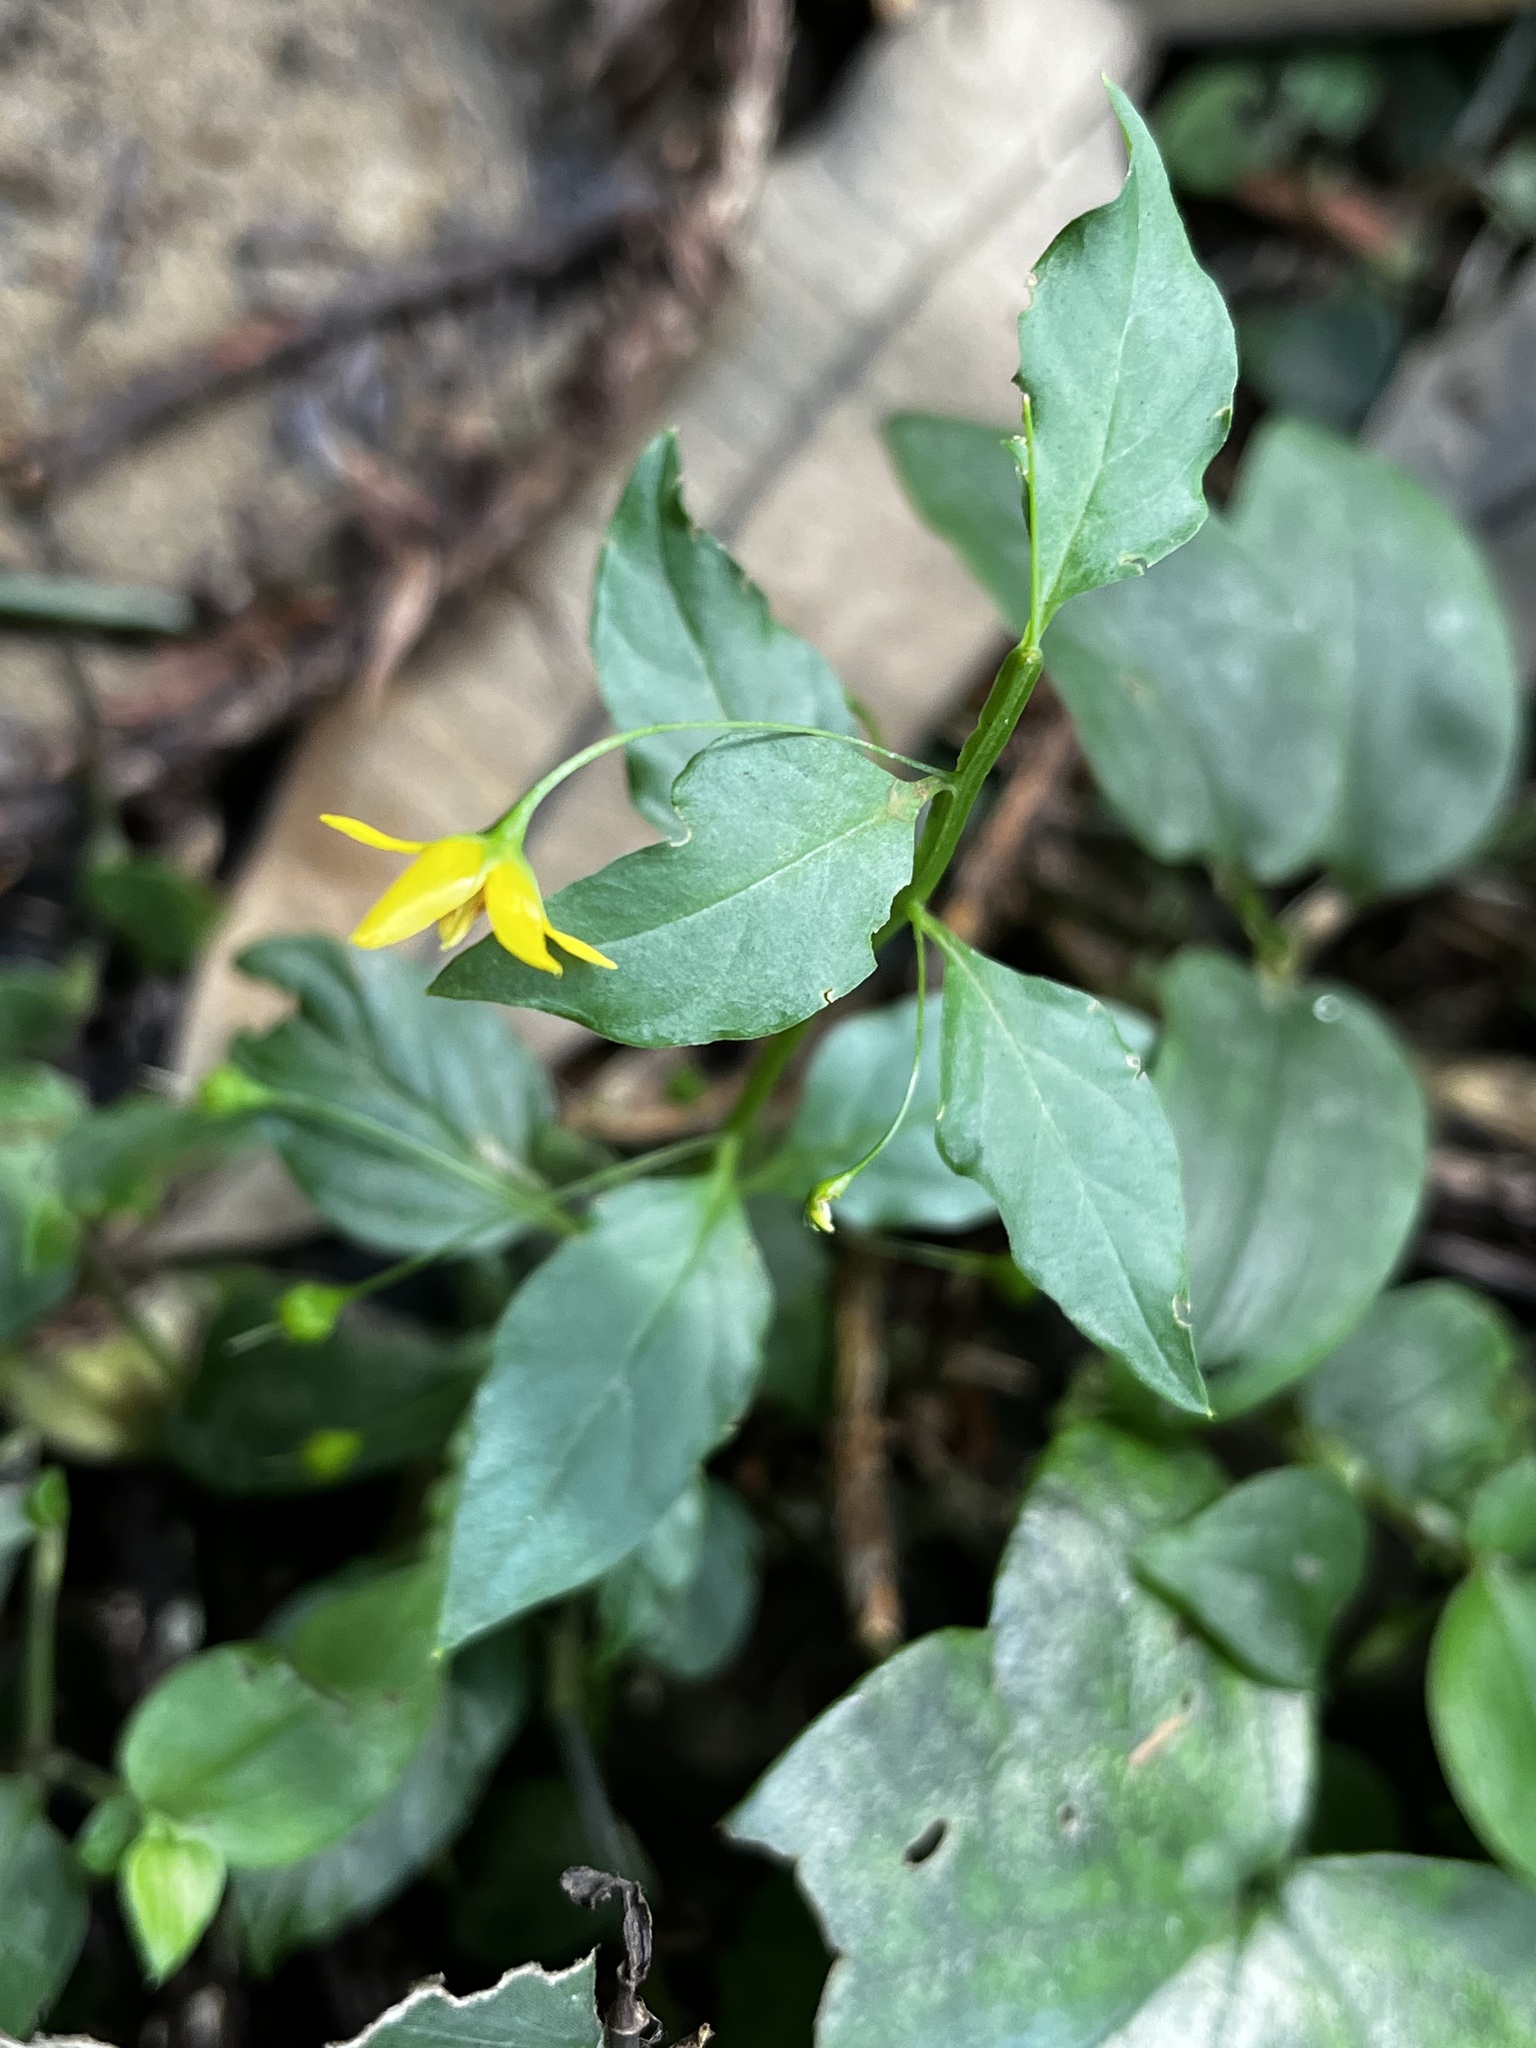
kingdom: Plantae
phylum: Tracheophyta
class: Magnoliopsida
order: Ericales
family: Primulaceae
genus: Lysimachia
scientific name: Lysimachia capillipes
